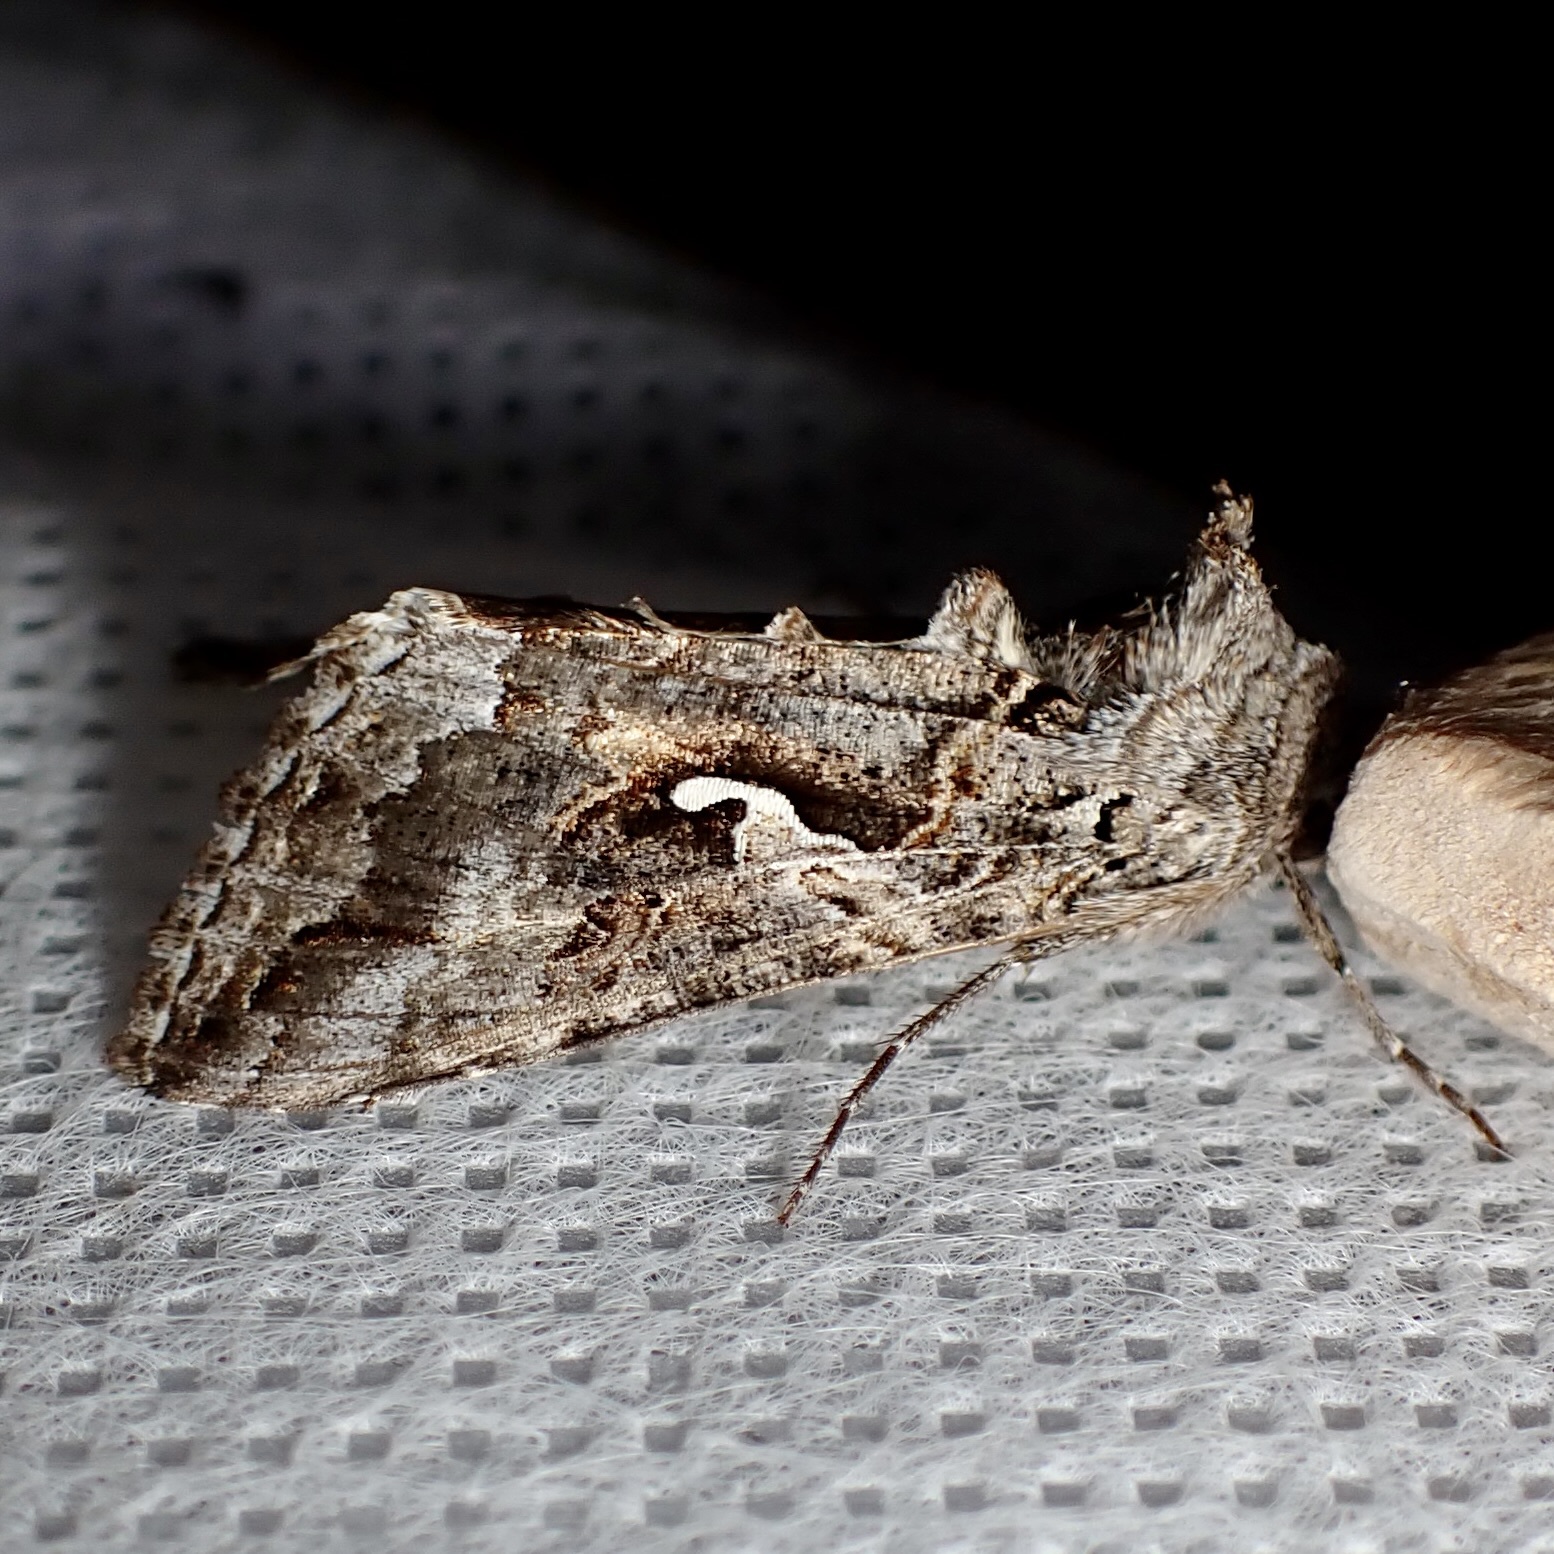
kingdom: Animalia
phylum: Arthropoda
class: Insecta
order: Lepidoptera
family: Noctuidae
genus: Autographa
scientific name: Autographa californica
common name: Alfalfa looper
